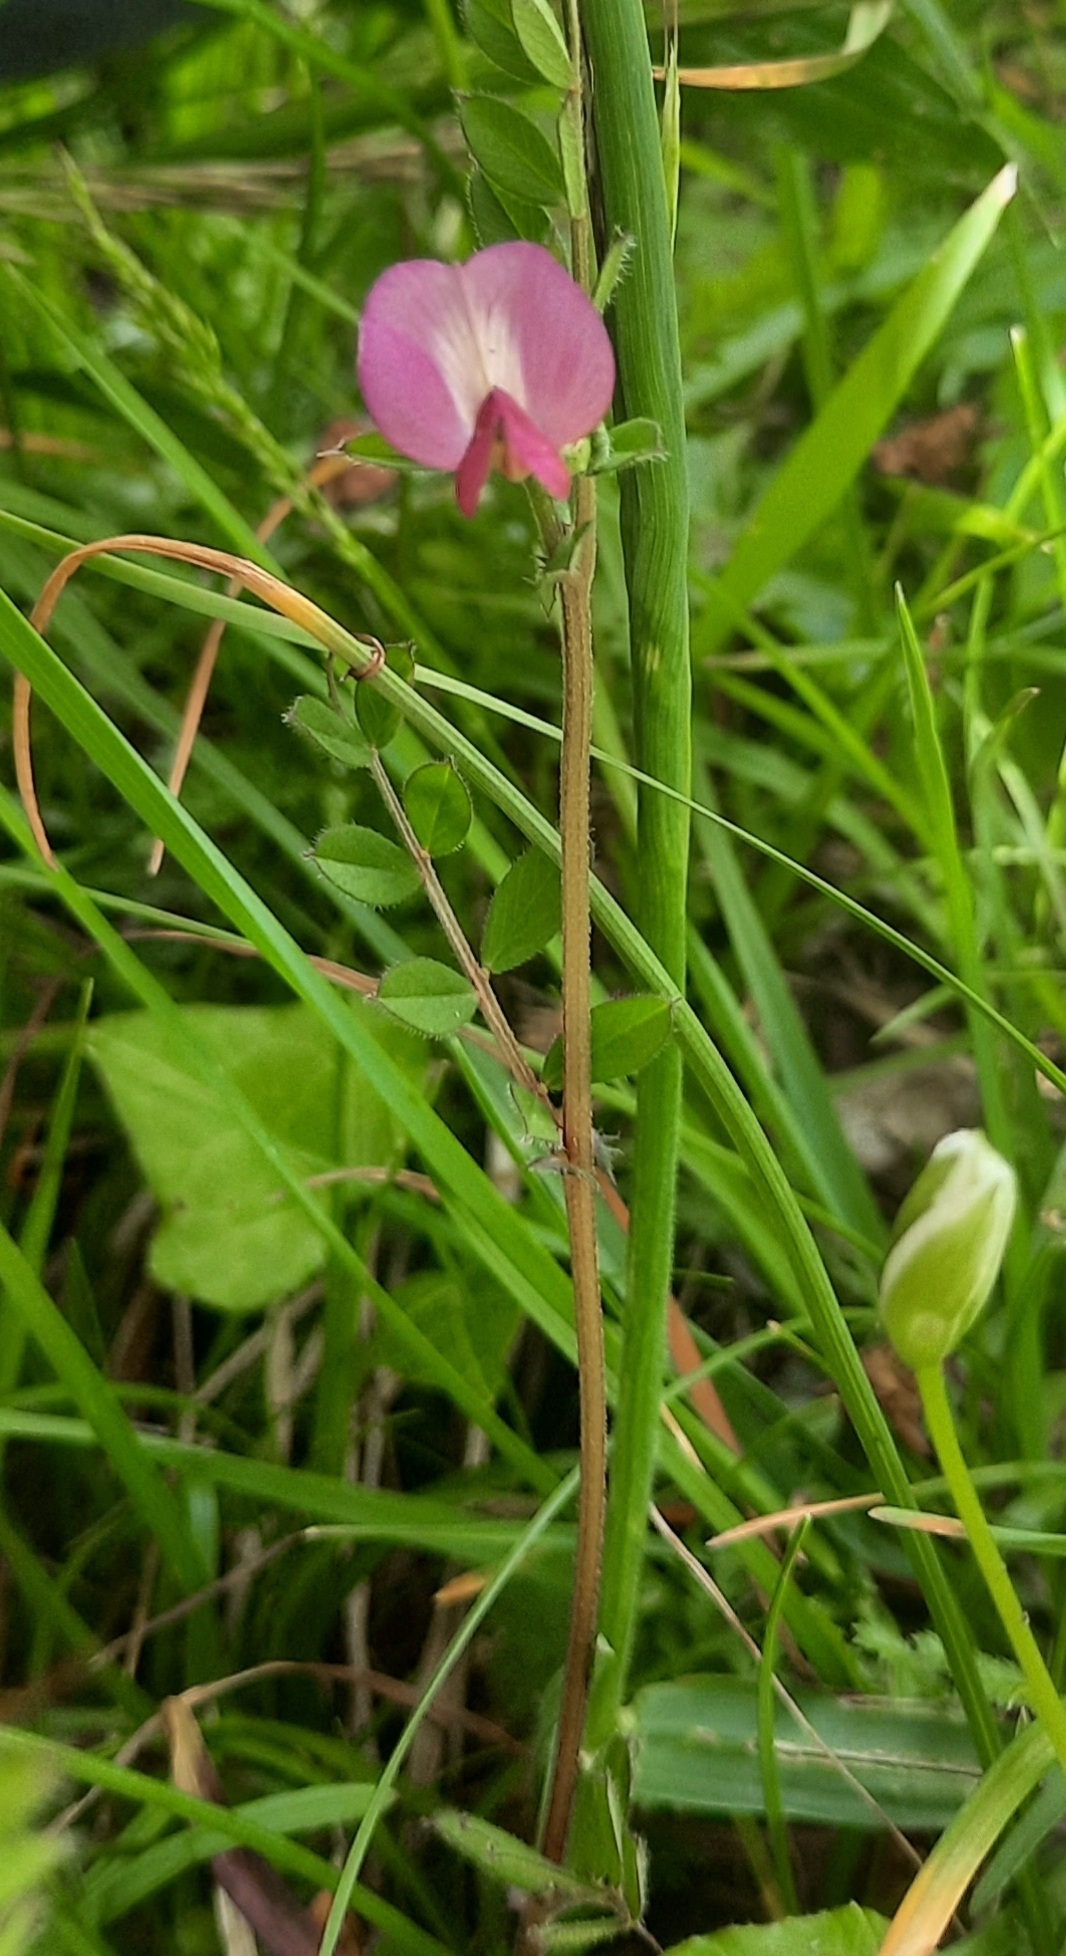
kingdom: Plantae
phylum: Tracheophyta
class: Magnoliopsida
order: Fabales
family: Fabaceae
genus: Vicia
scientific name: Vicia sativa
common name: Garden vetch
